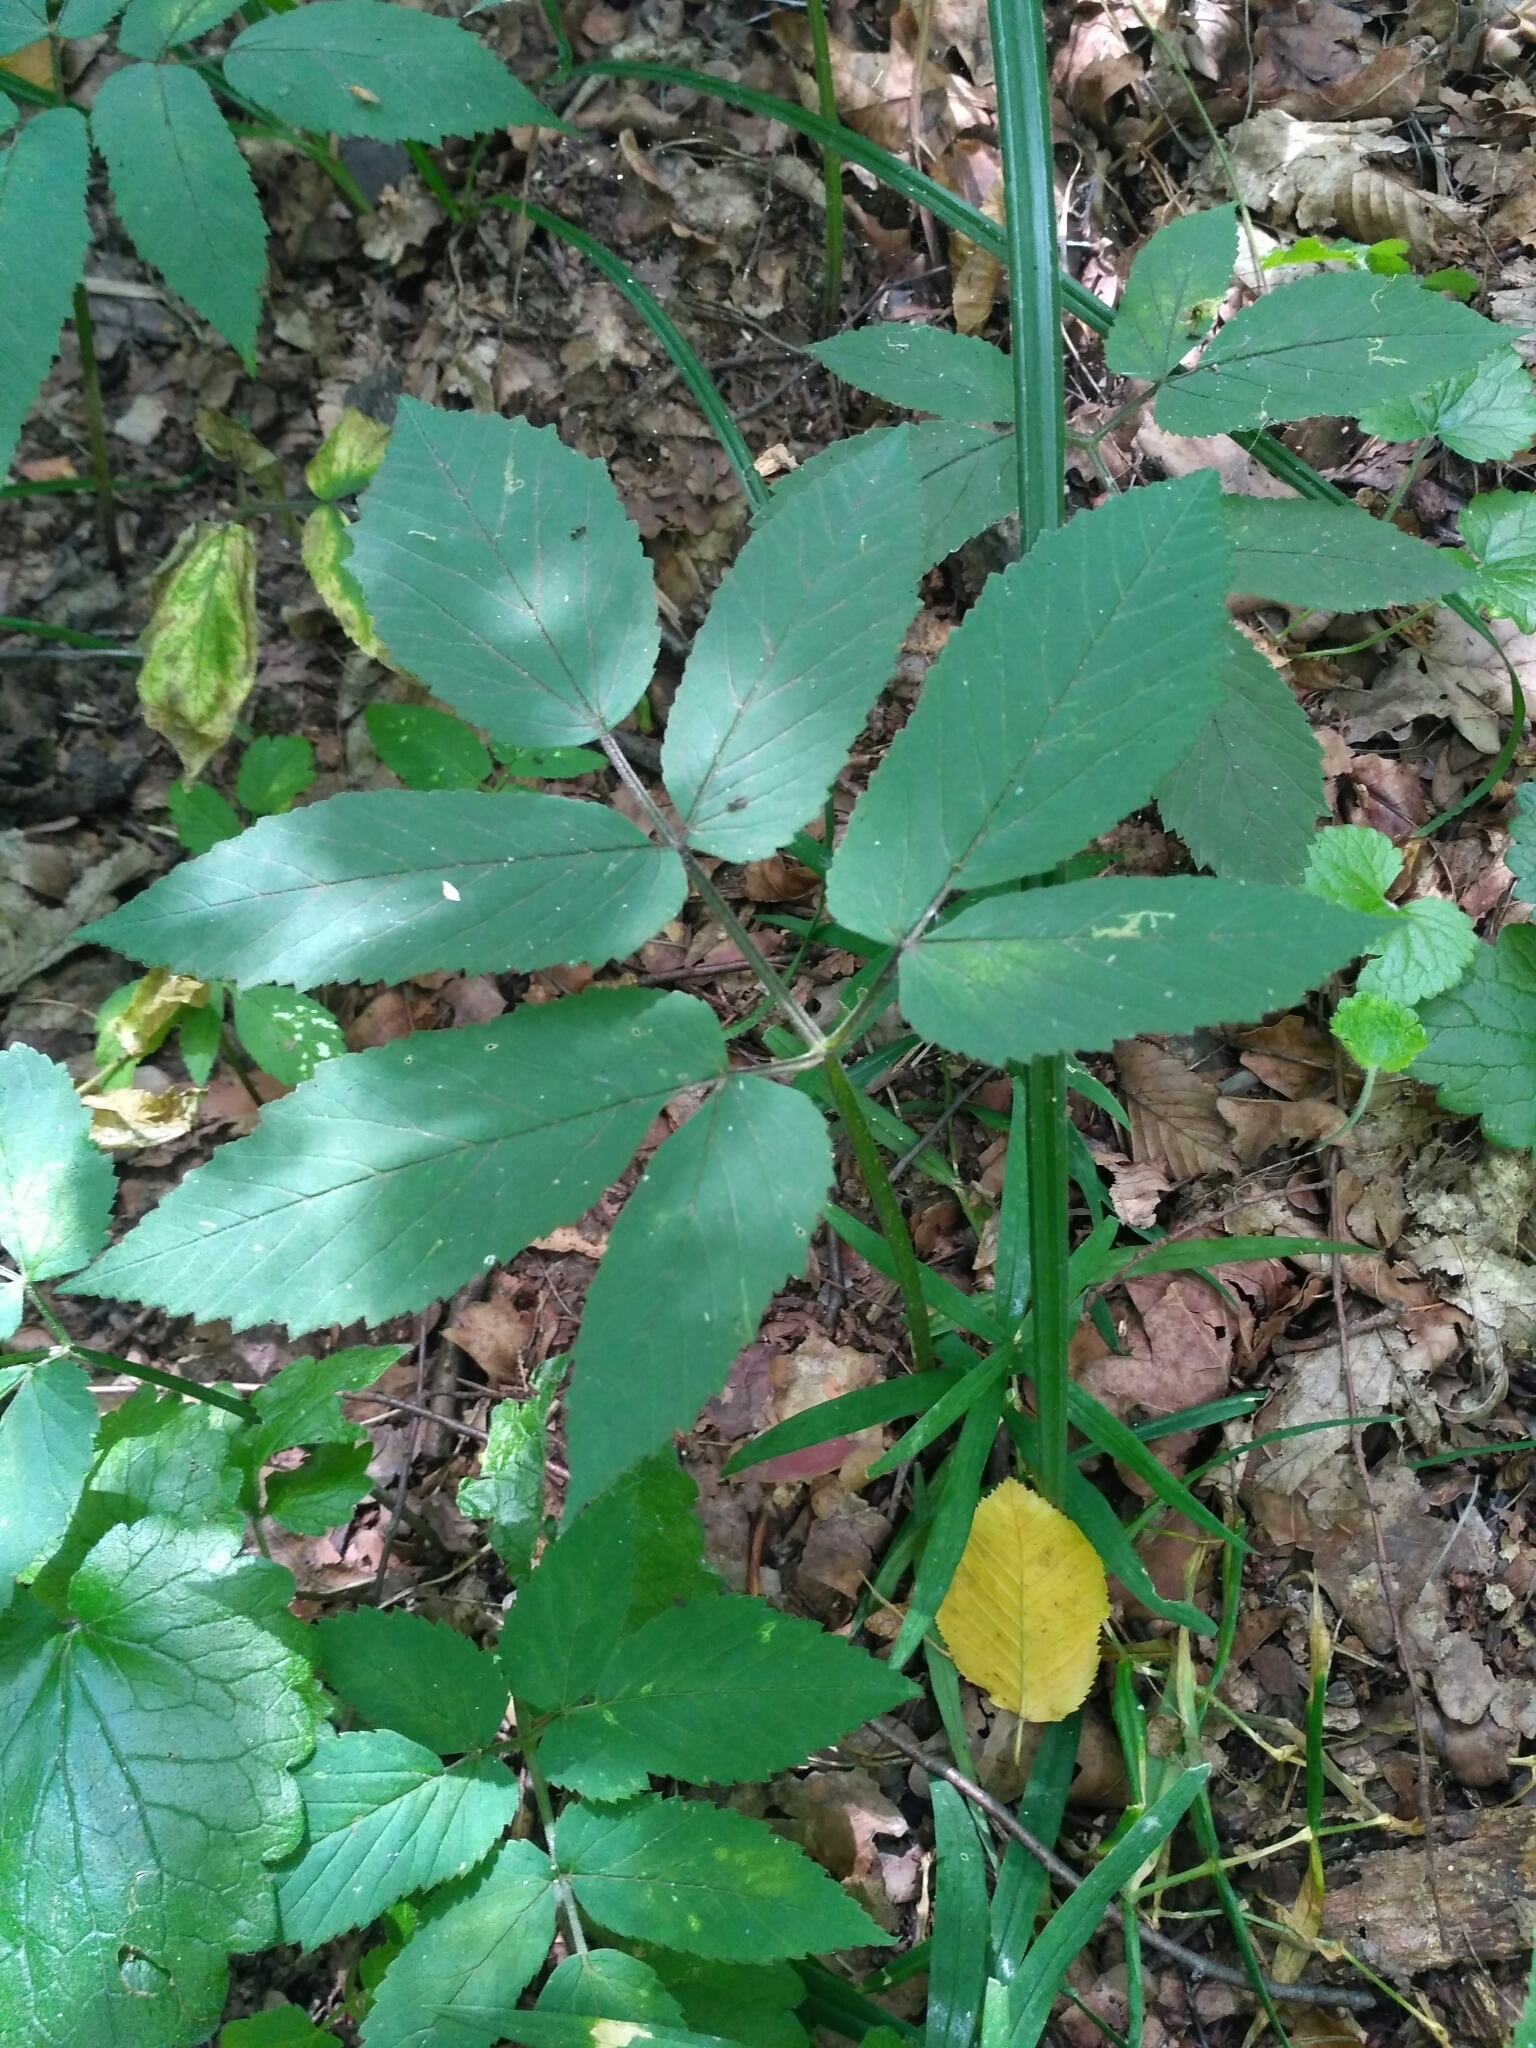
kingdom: Plantae
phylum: Tracheophyta
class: Magnoliopsida
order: Apiales
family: Apiaceae
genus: Aegopodium
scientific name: Aegopodium podagraria
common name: Ground-elder
